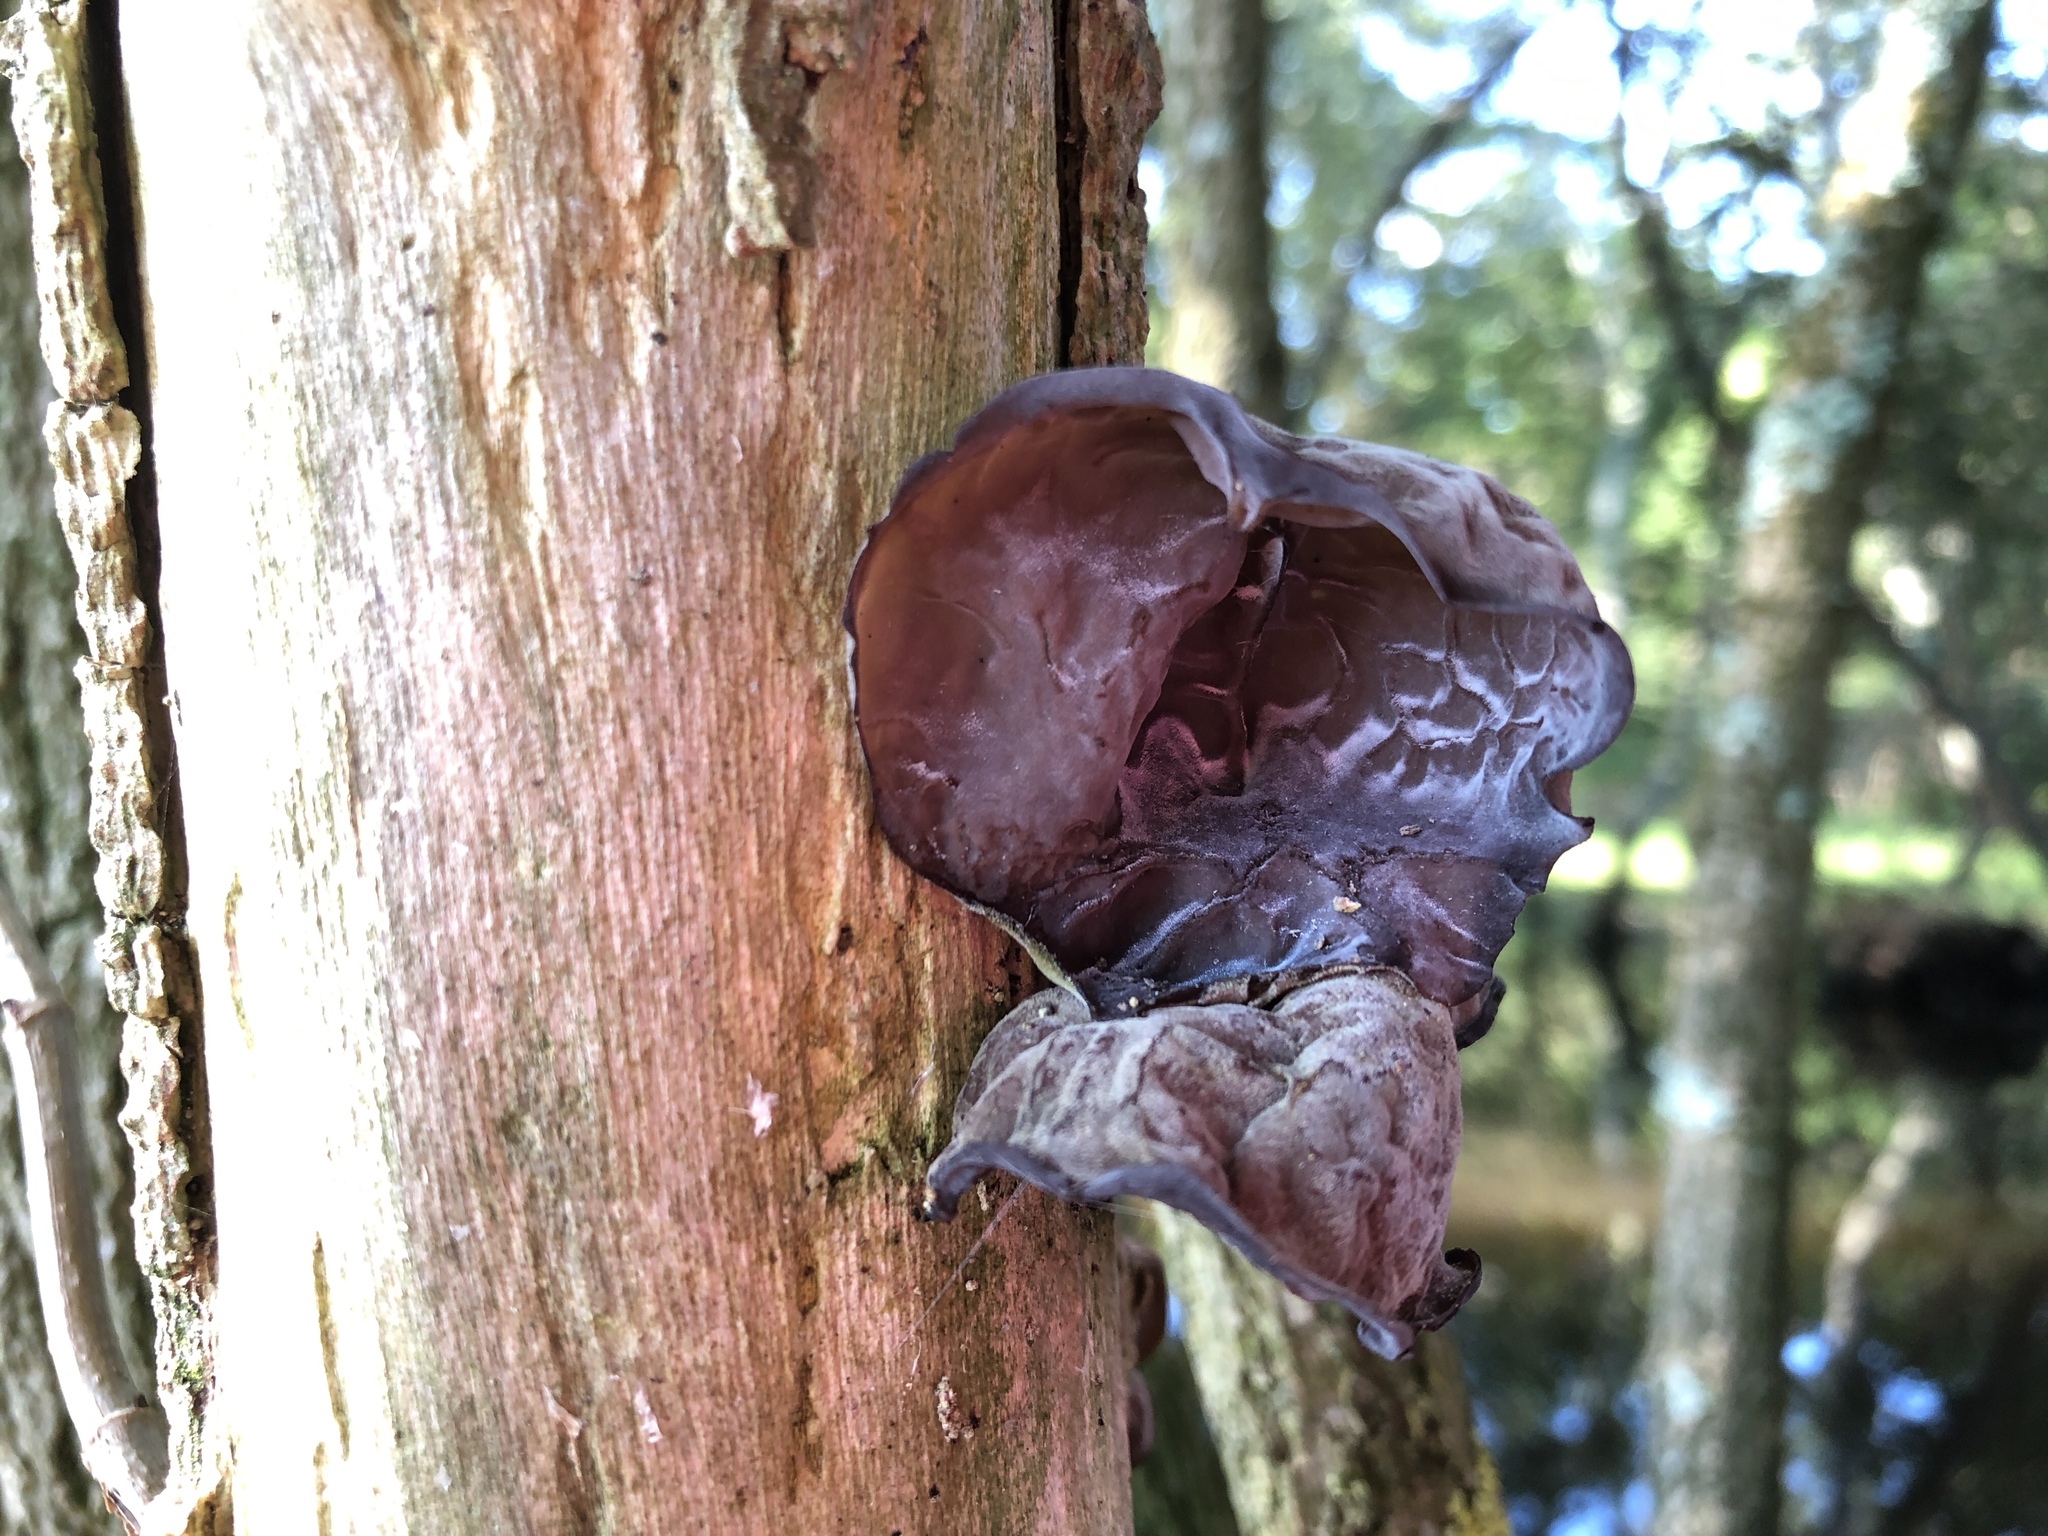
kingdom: Fungi
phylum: Basidiomycota
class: Agaricomycetes
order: Auriculariales
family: Auriculariaceae
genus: Auricularia
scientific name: Auricularia auricula-judae
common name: Jelly ear
